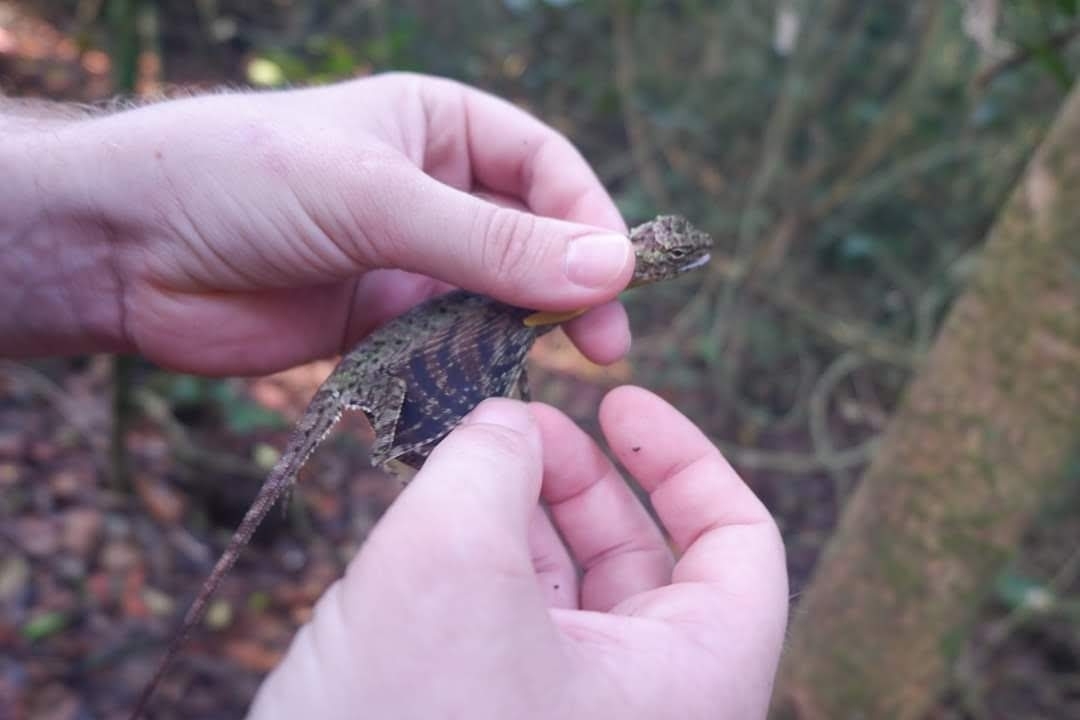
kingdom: Animalia
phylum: Chordata
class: Squamata
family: Agamidae
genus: Draco
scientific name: Draco maculatus
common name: Spotted flying dragon
